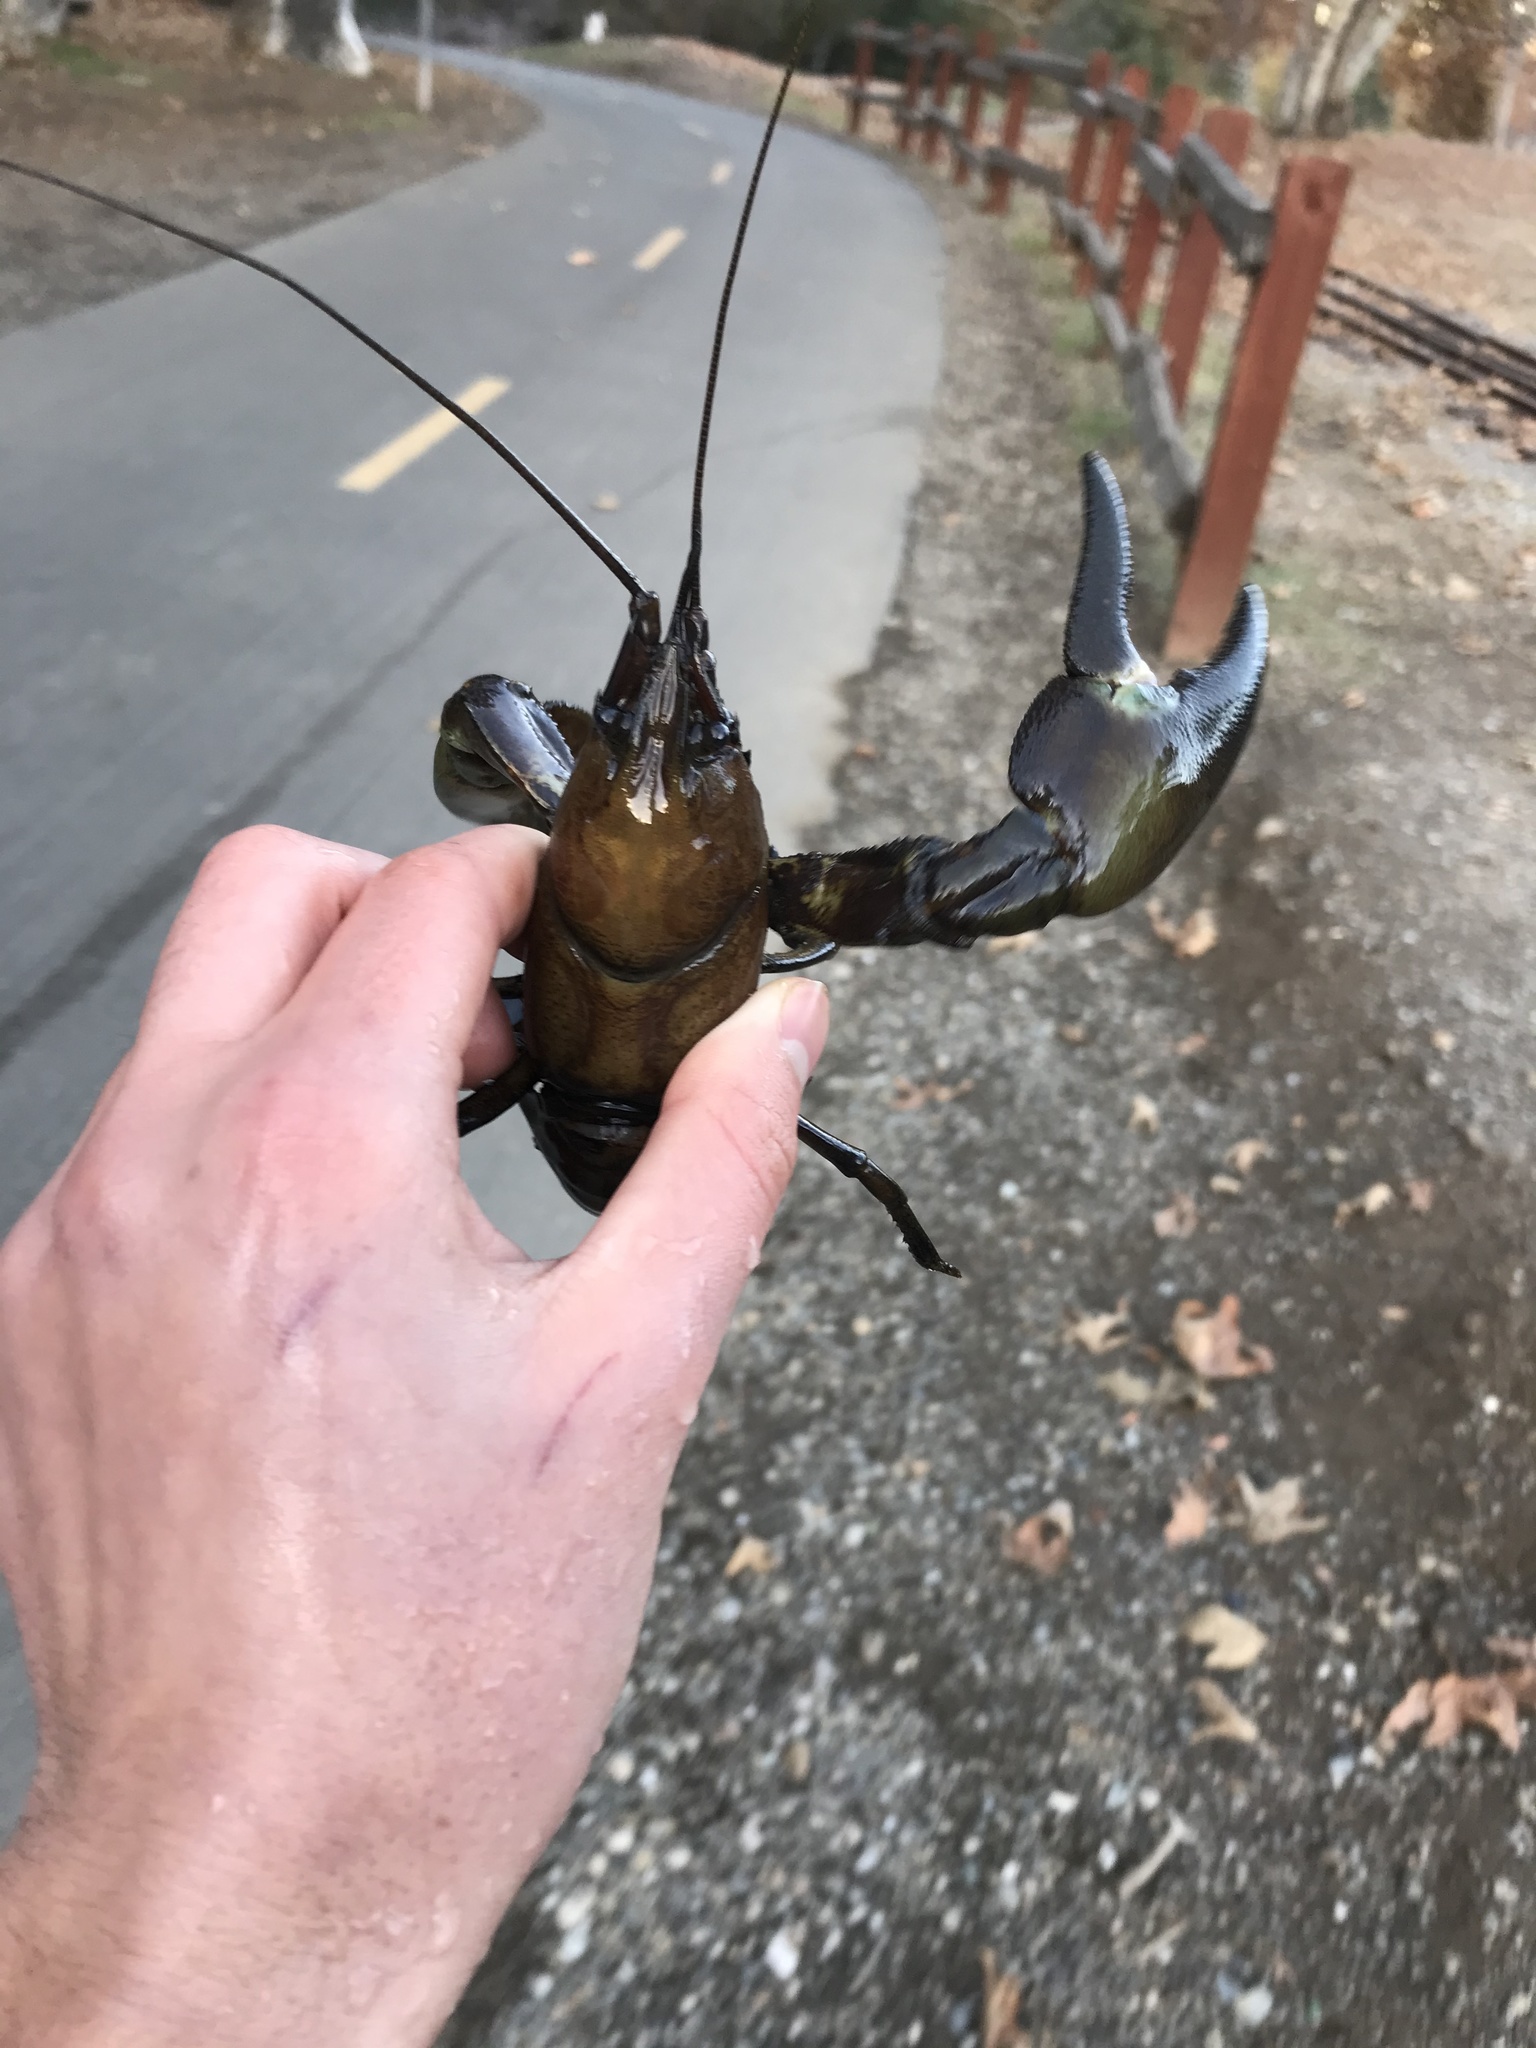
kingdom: Animalia
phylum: Arthropoda
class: Malacostraca
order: Decapoda
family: Astacidae
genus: Pacifastacus
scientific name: Pacifastacus leniusculus
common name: Signal crayfish
